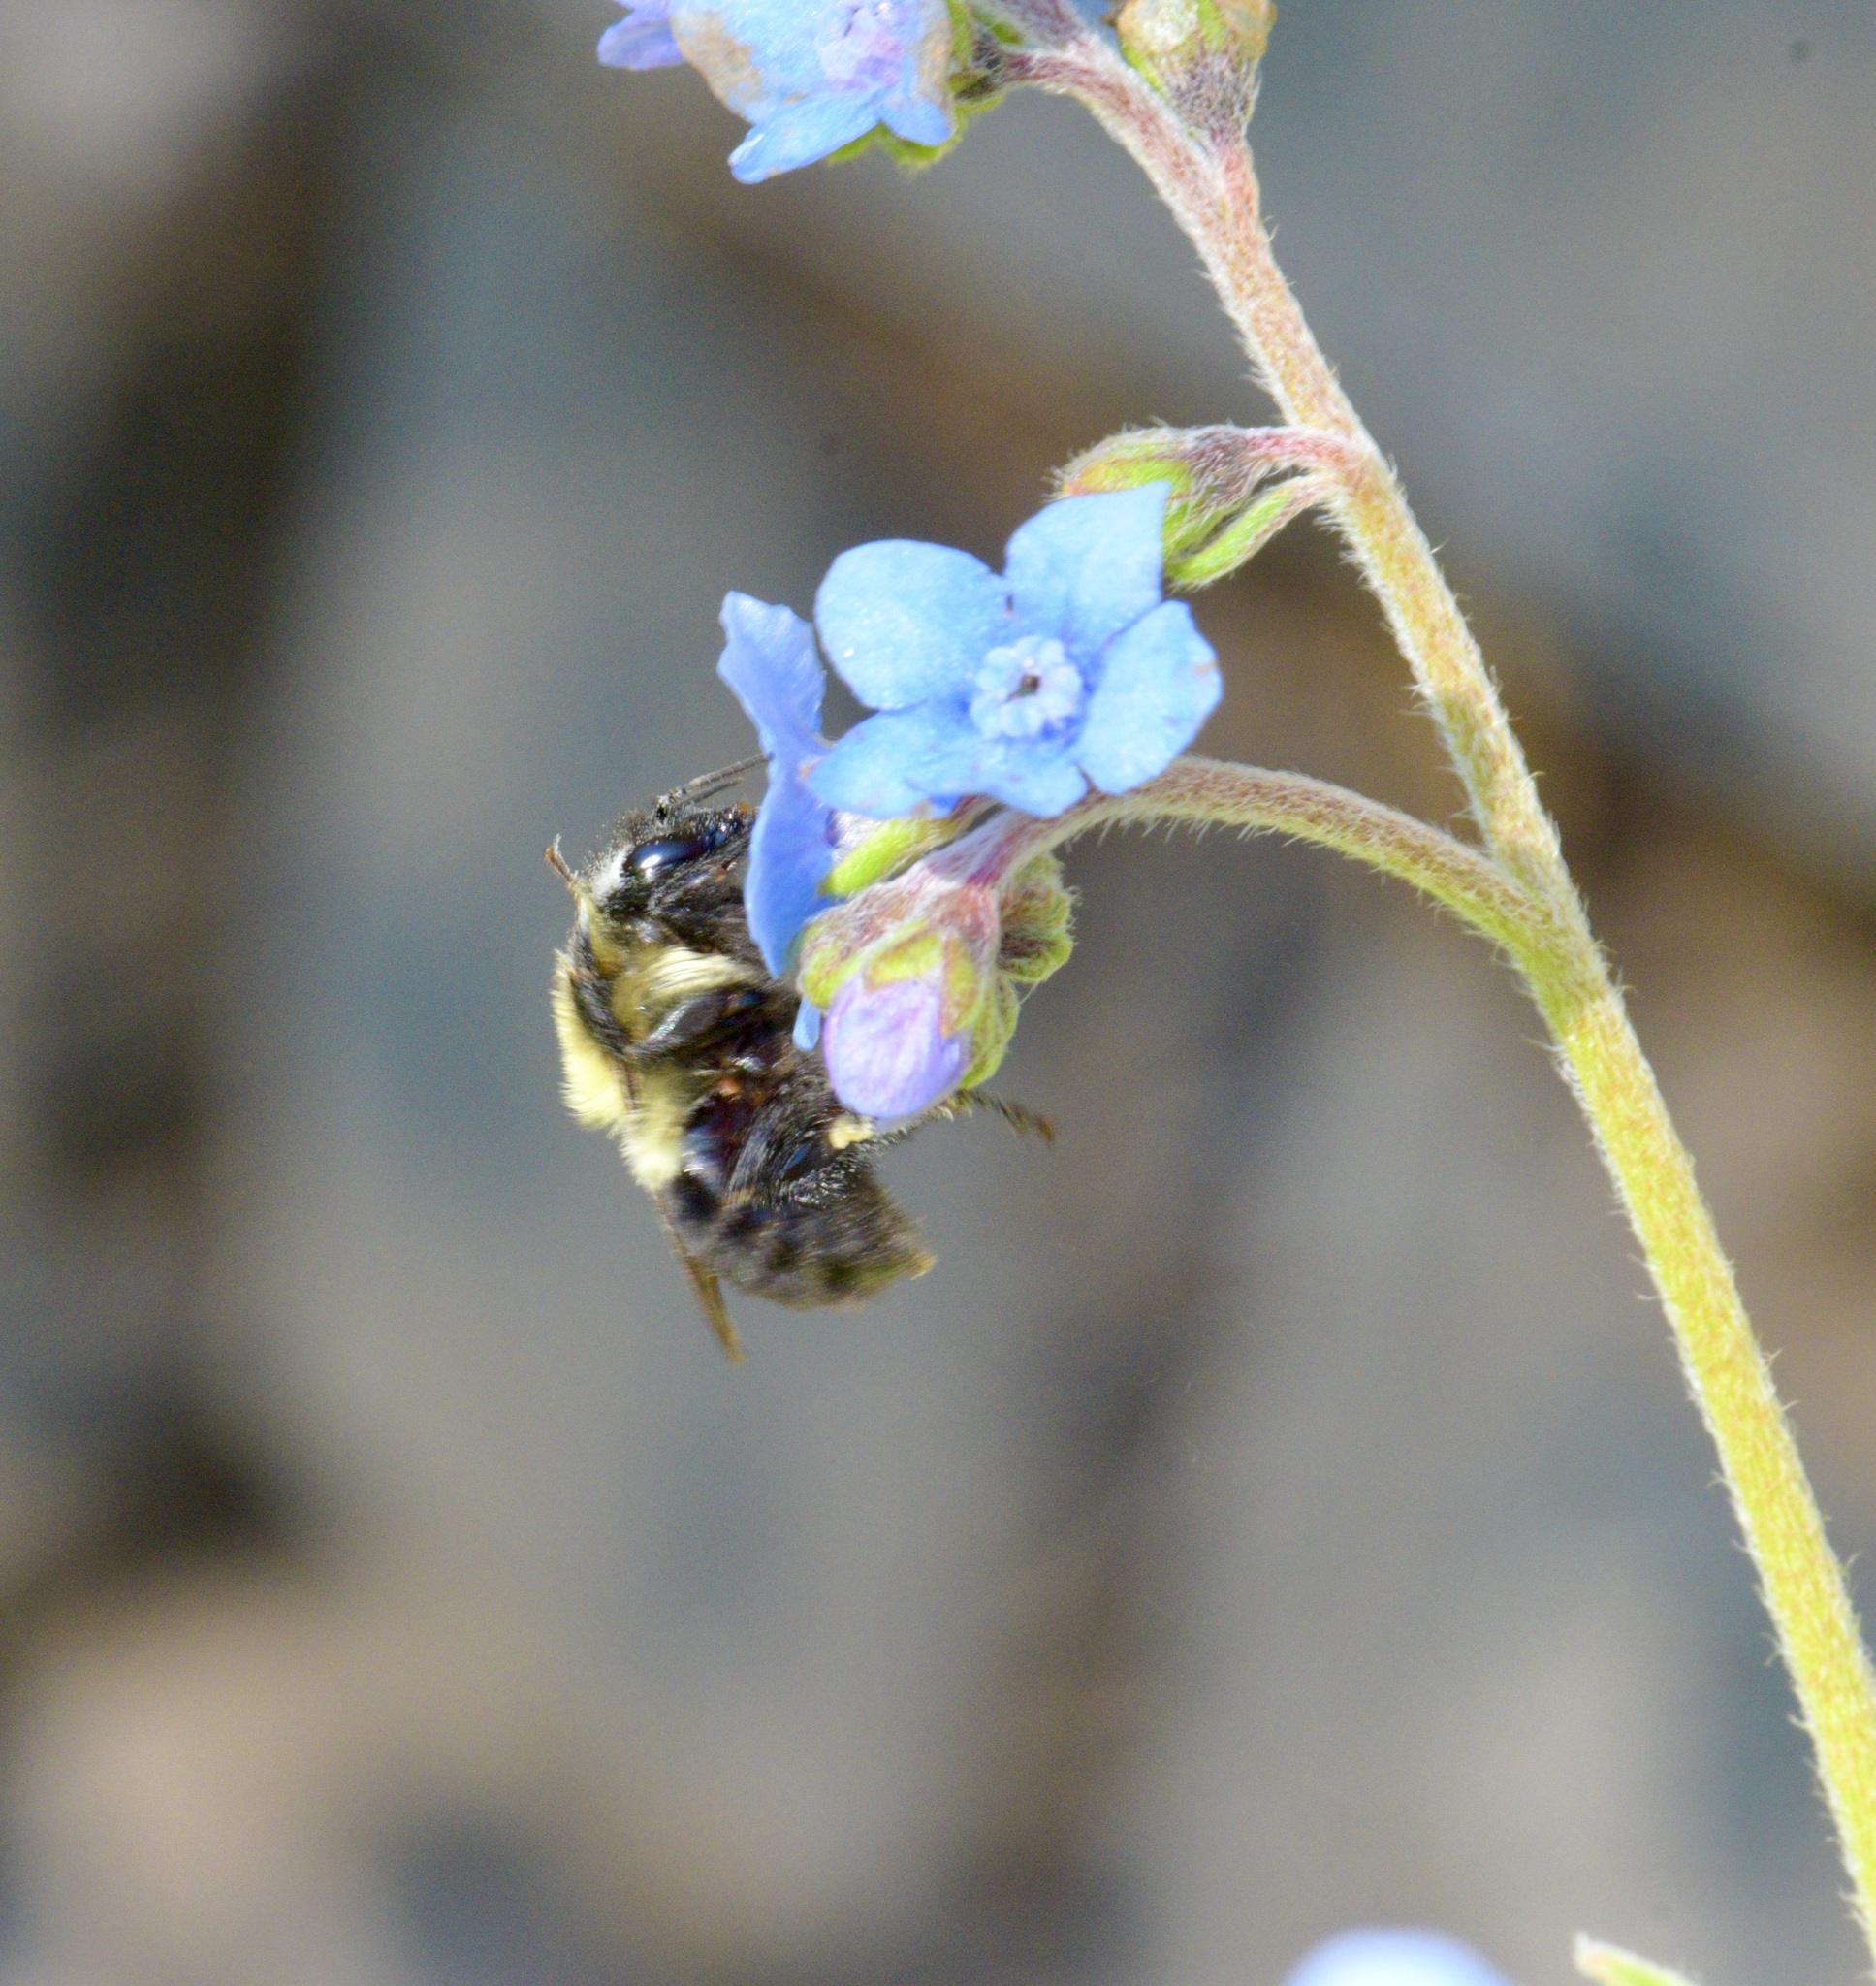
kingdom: Animalia
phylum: Arthropoda
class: Insecta
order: Hymenoptera
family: Apidae
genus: Bombus
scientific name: Bombus impatiens
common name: Common eastern bumble bee
